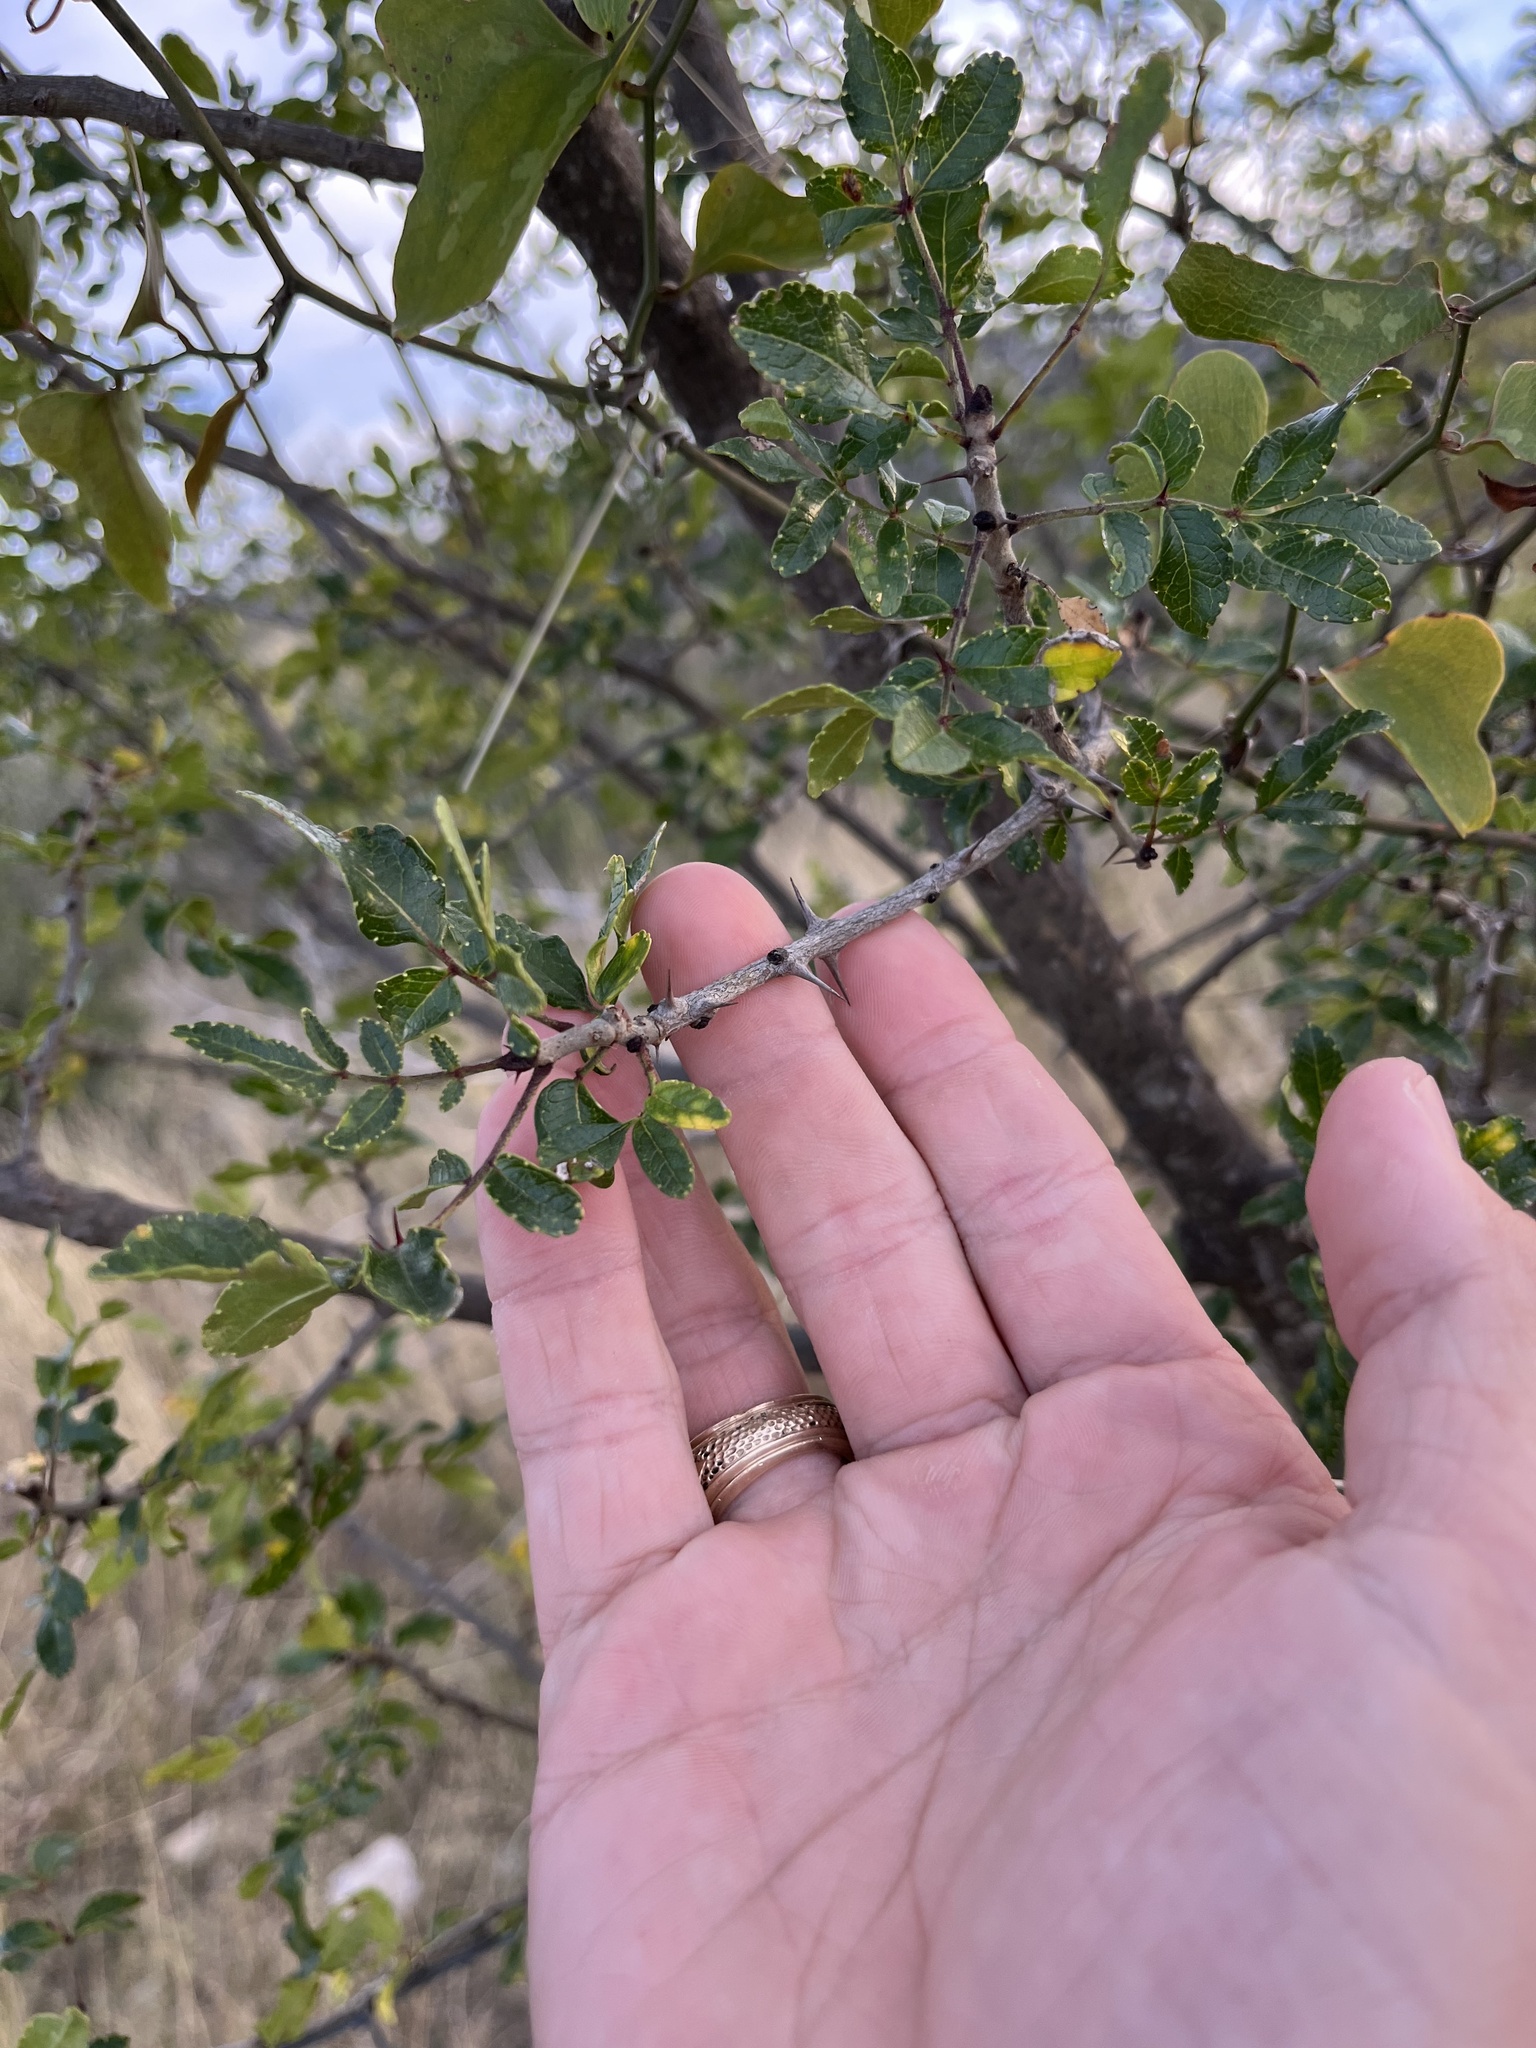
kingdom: Plantae
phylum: Tracheophyta
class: Magnoliopsida
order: Sapindales
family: Rutaceae
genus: Zanthoxylum
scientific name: Zanthoxylum clava-herculis
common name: Hercules'-club
